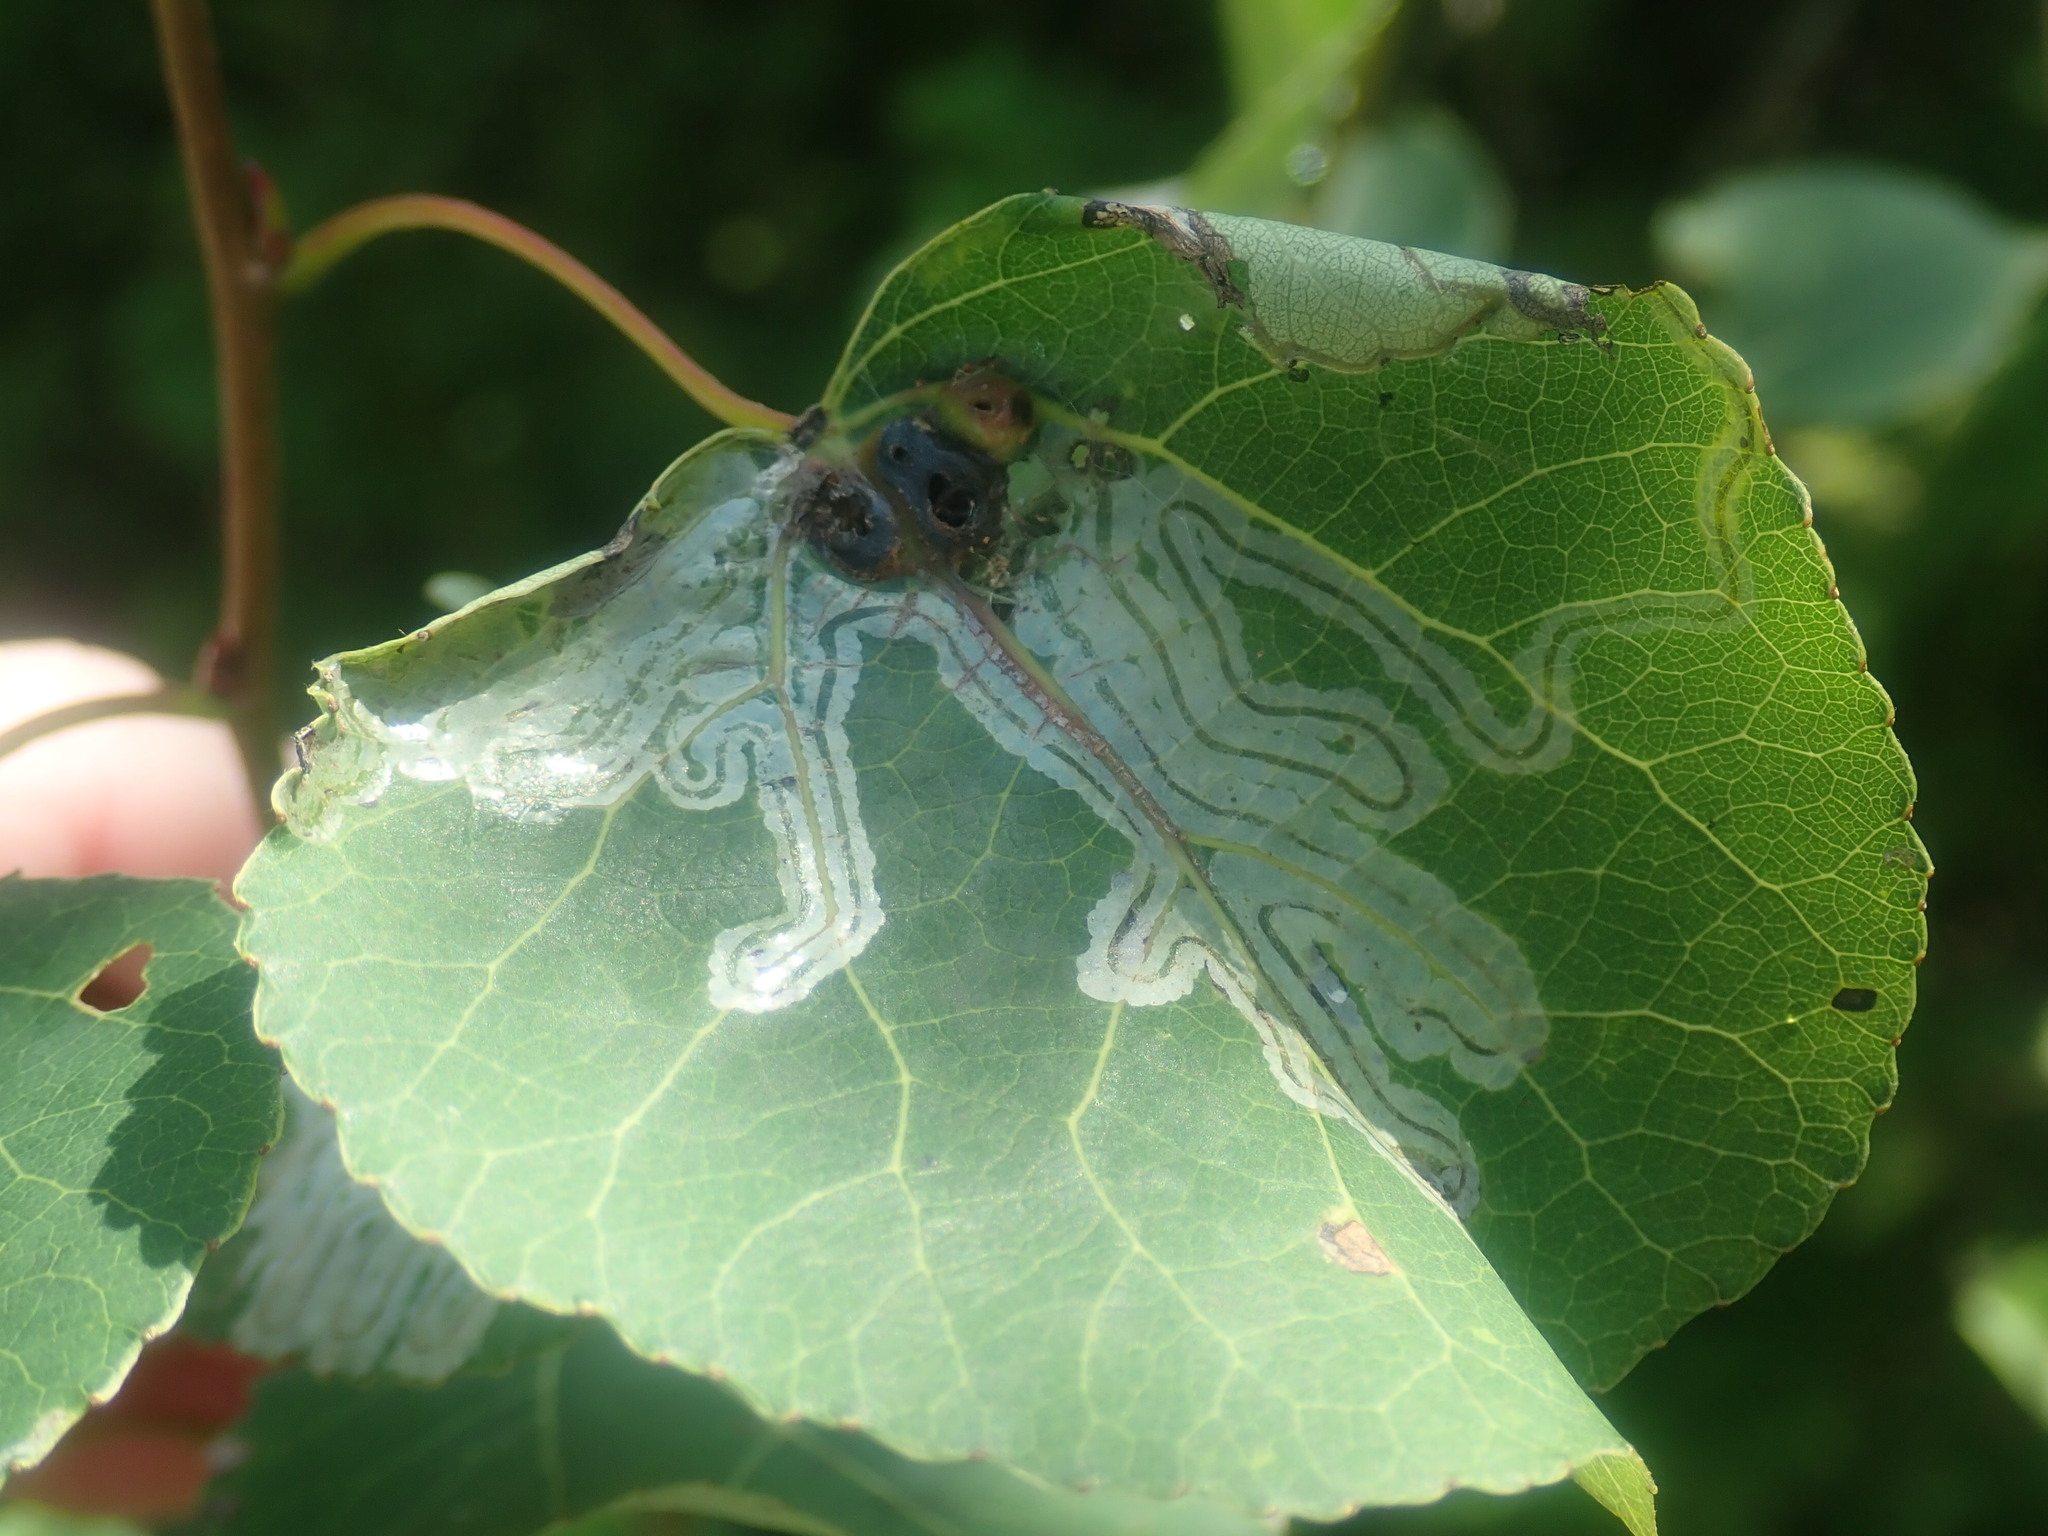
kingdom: Animalia
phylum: Arthropoda
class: Insecta
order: Lepidoptera
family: Gracillariidae
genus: Phyllocnistis
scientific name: Phyllocnistis populiella
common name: Aspen serpentine leafminer moth
